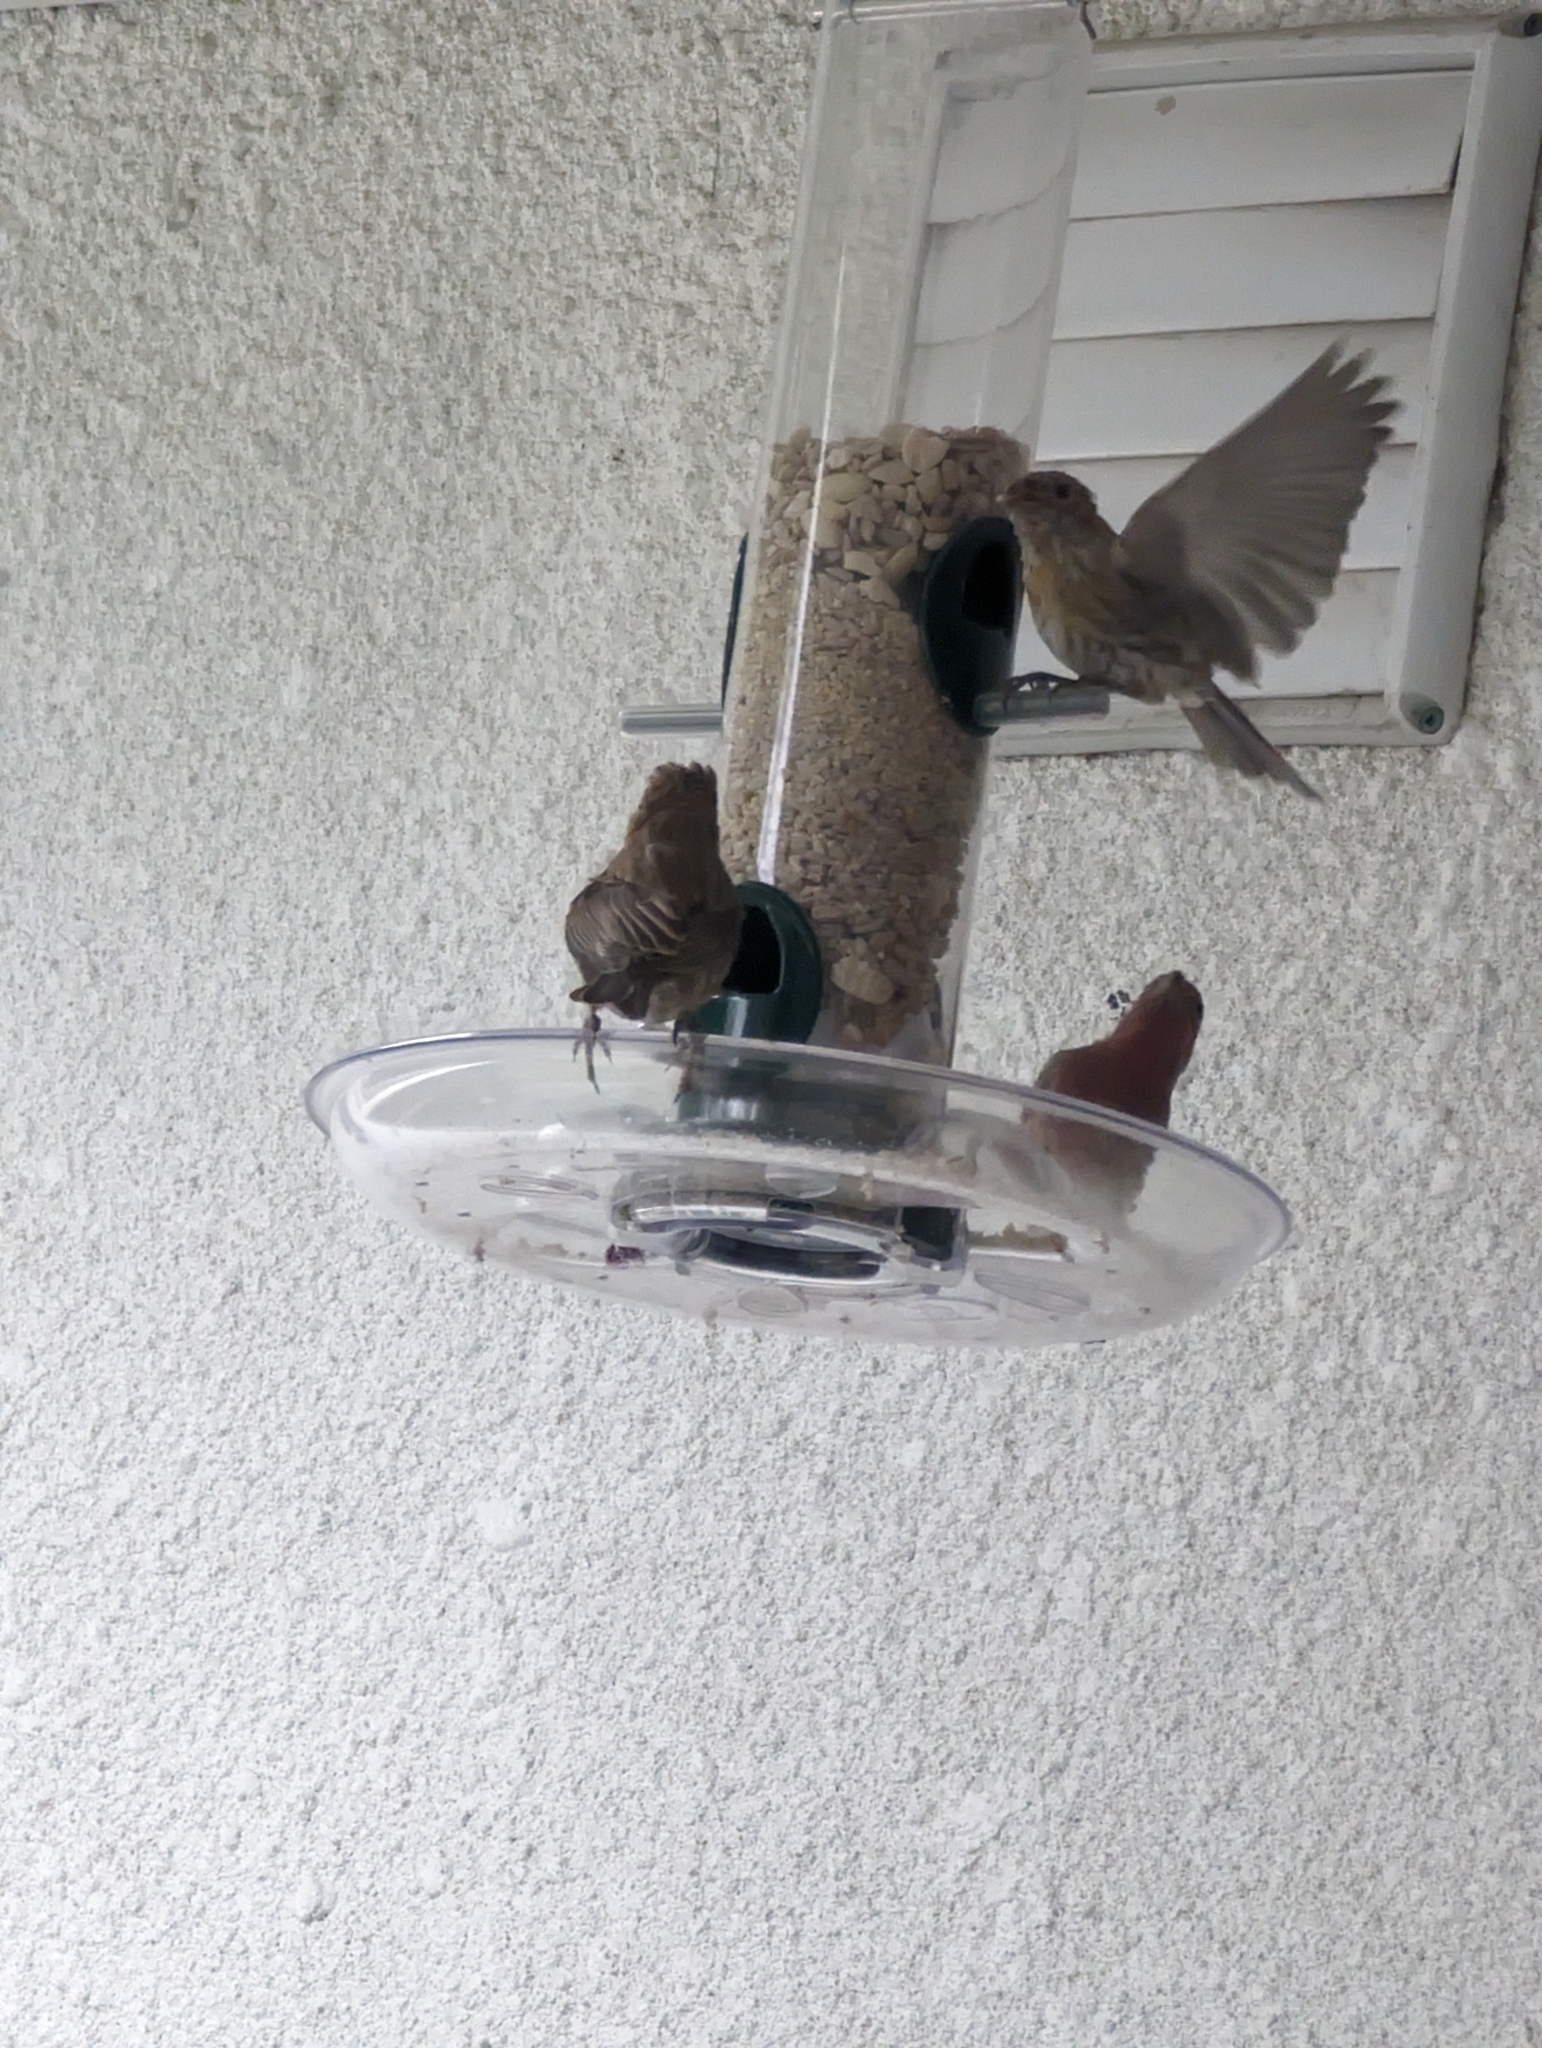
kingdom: Animalia
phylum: Chordata
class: Aves
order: Passeriformes
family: Fringillidae
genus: Haemorhous
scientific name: Haemorhous mexicanus
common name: House finch
